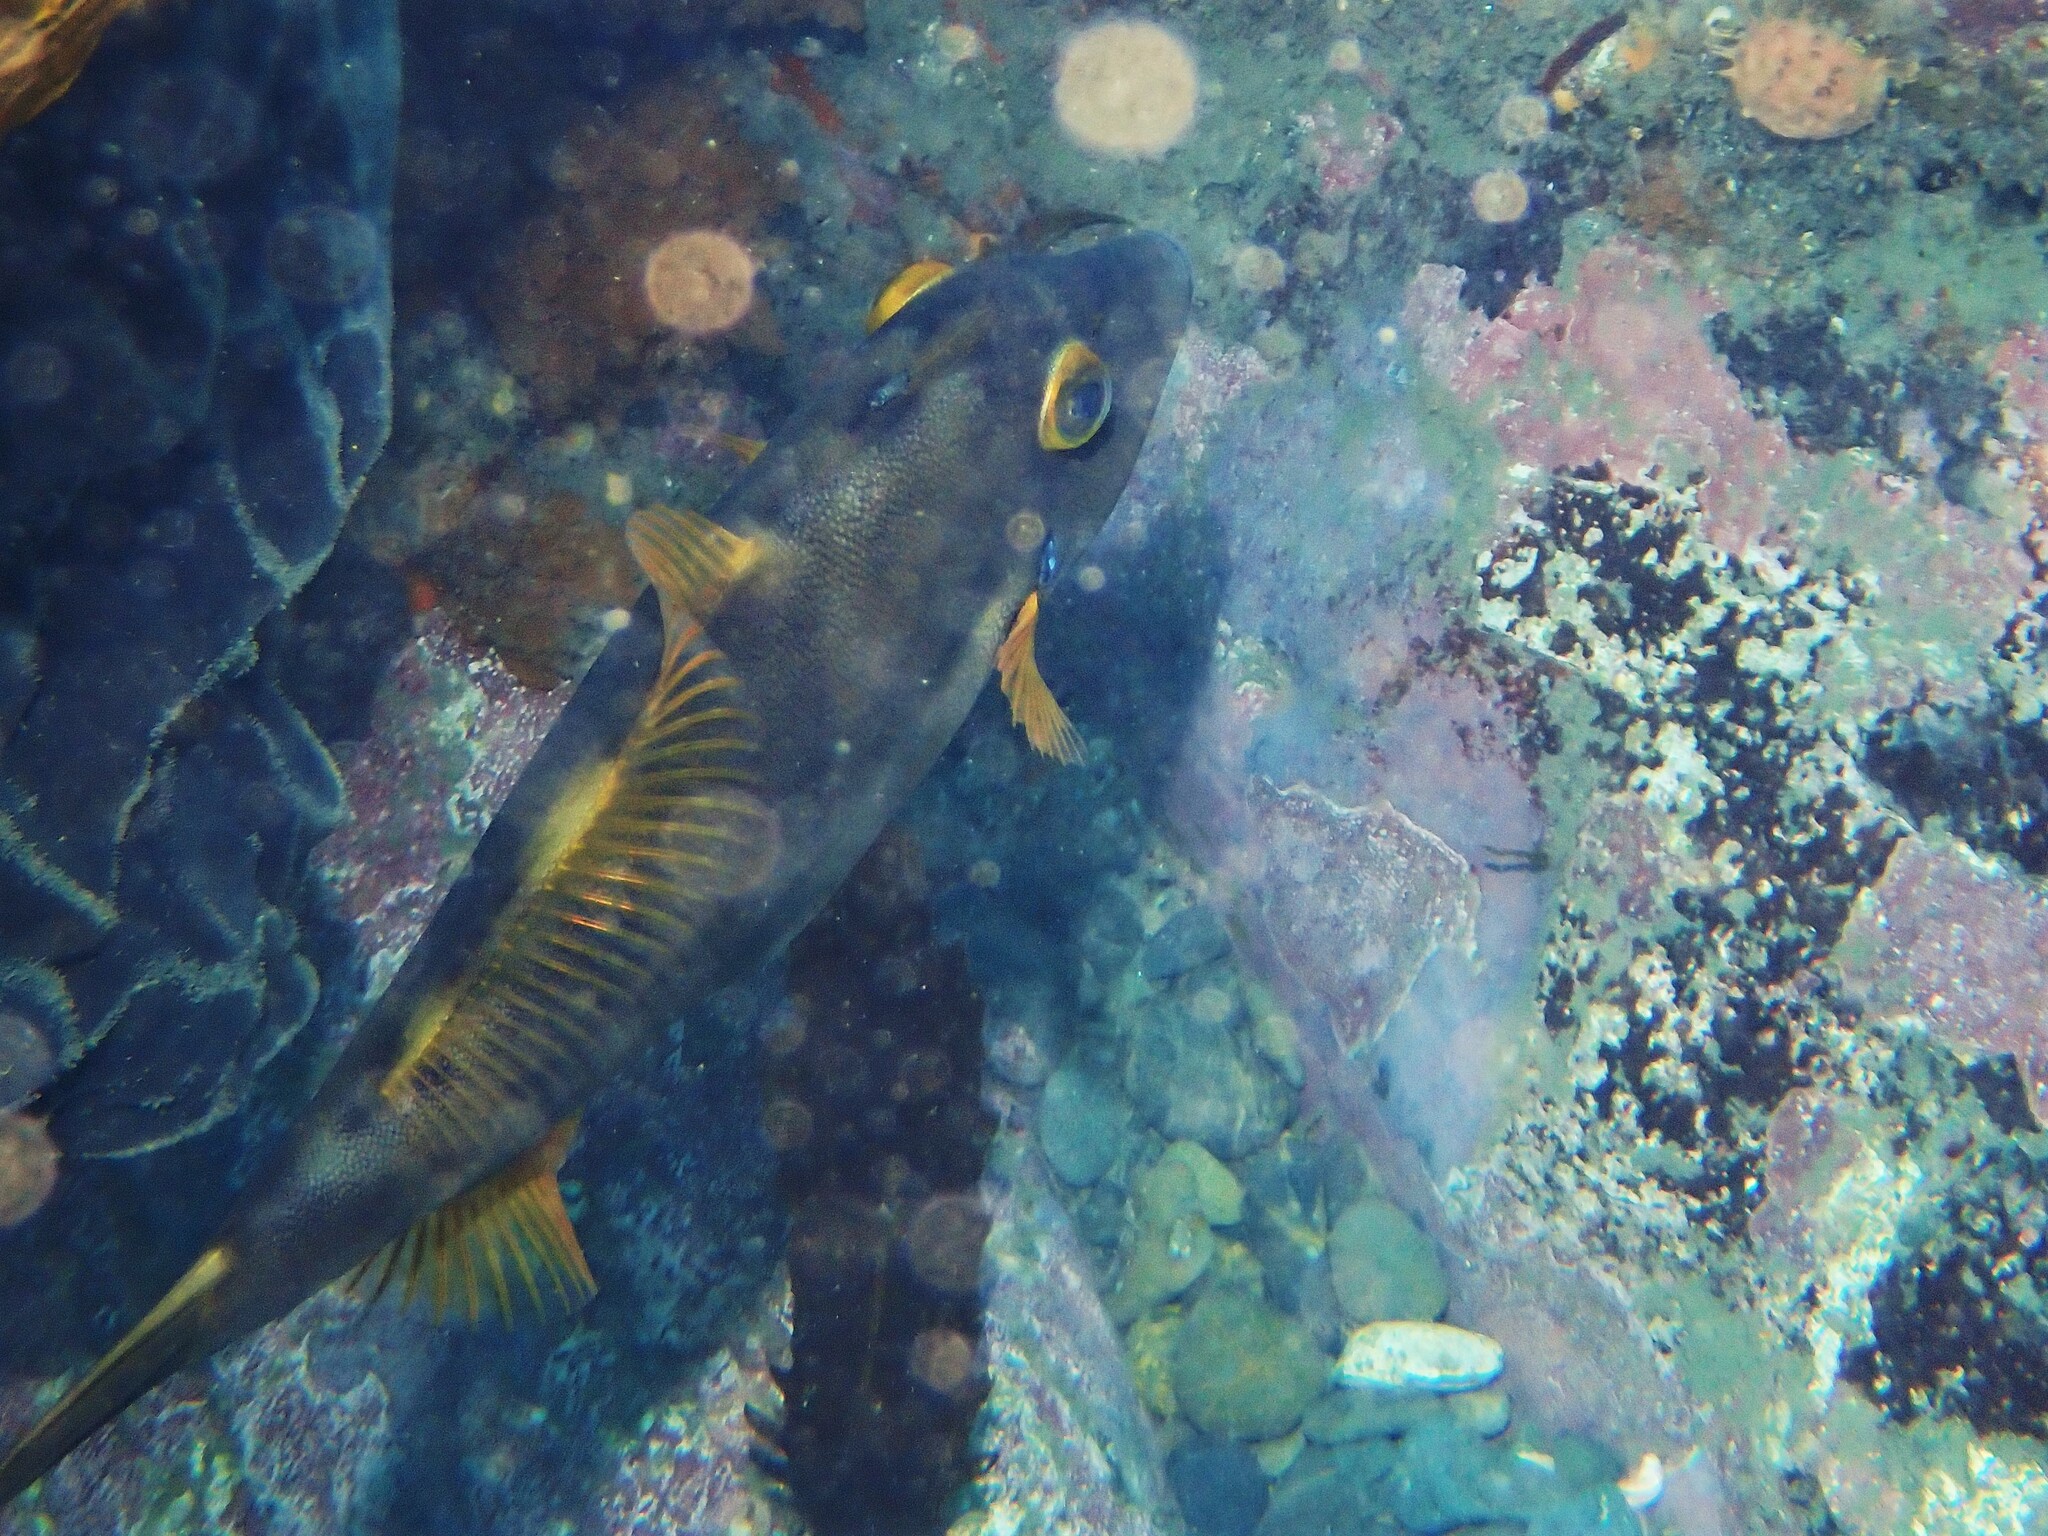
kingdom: Animalia
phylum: Chordata
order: Tetraodontiformes
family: Monacanthidae
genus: Meuschenia
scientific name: Meuschenia scaber
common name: Cosmopolitan leatherjacket
